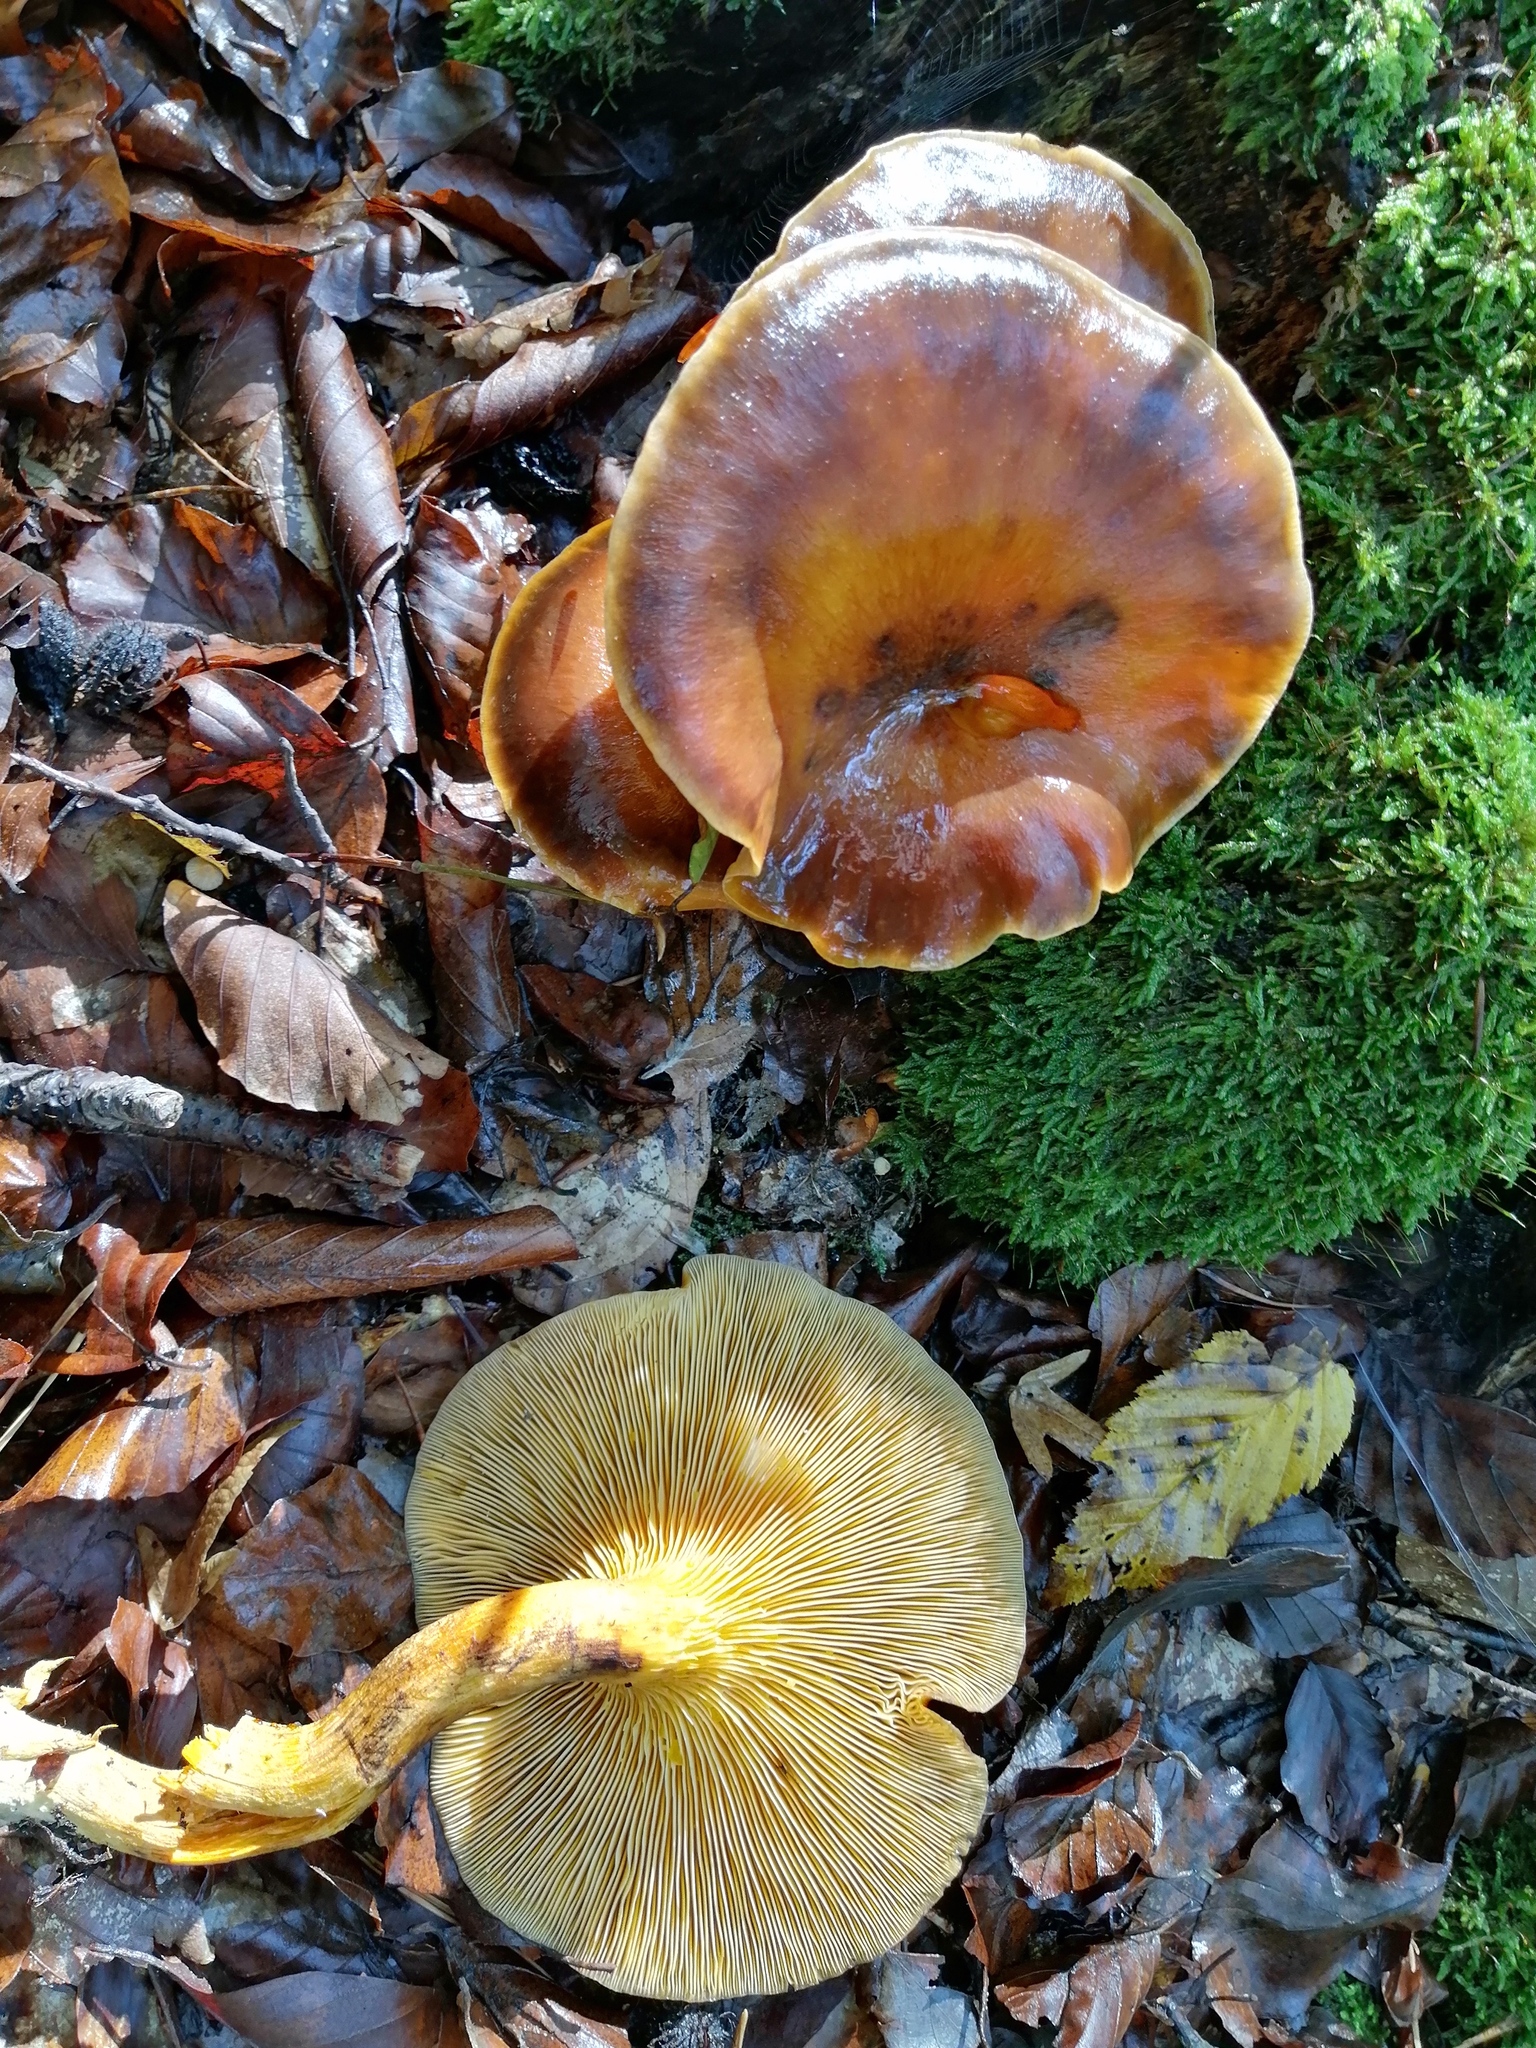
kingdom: Fungi
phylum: Basidiomycota
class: Agaricomycetes
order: Agaricales
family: Omphalotaceae
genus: Omphalotus
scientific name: Omphalotus olearius
